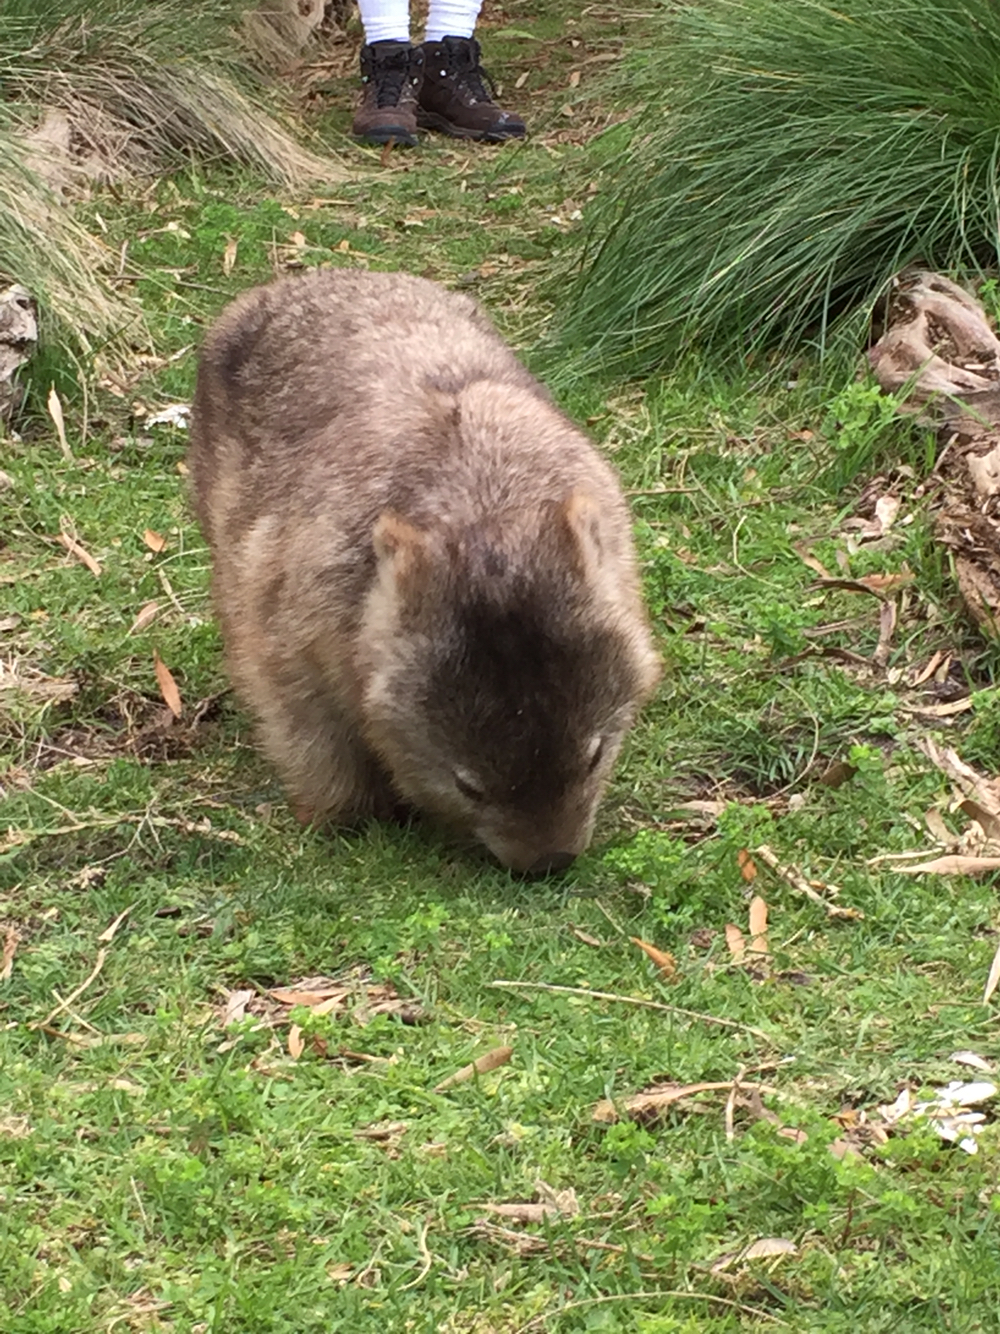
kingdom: Animalia
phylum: Chordata
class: Mammalia
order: Diprotodontia
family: Vombatidae
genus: Vombatus
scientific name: Vombatus ursinus
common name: Common wombat
